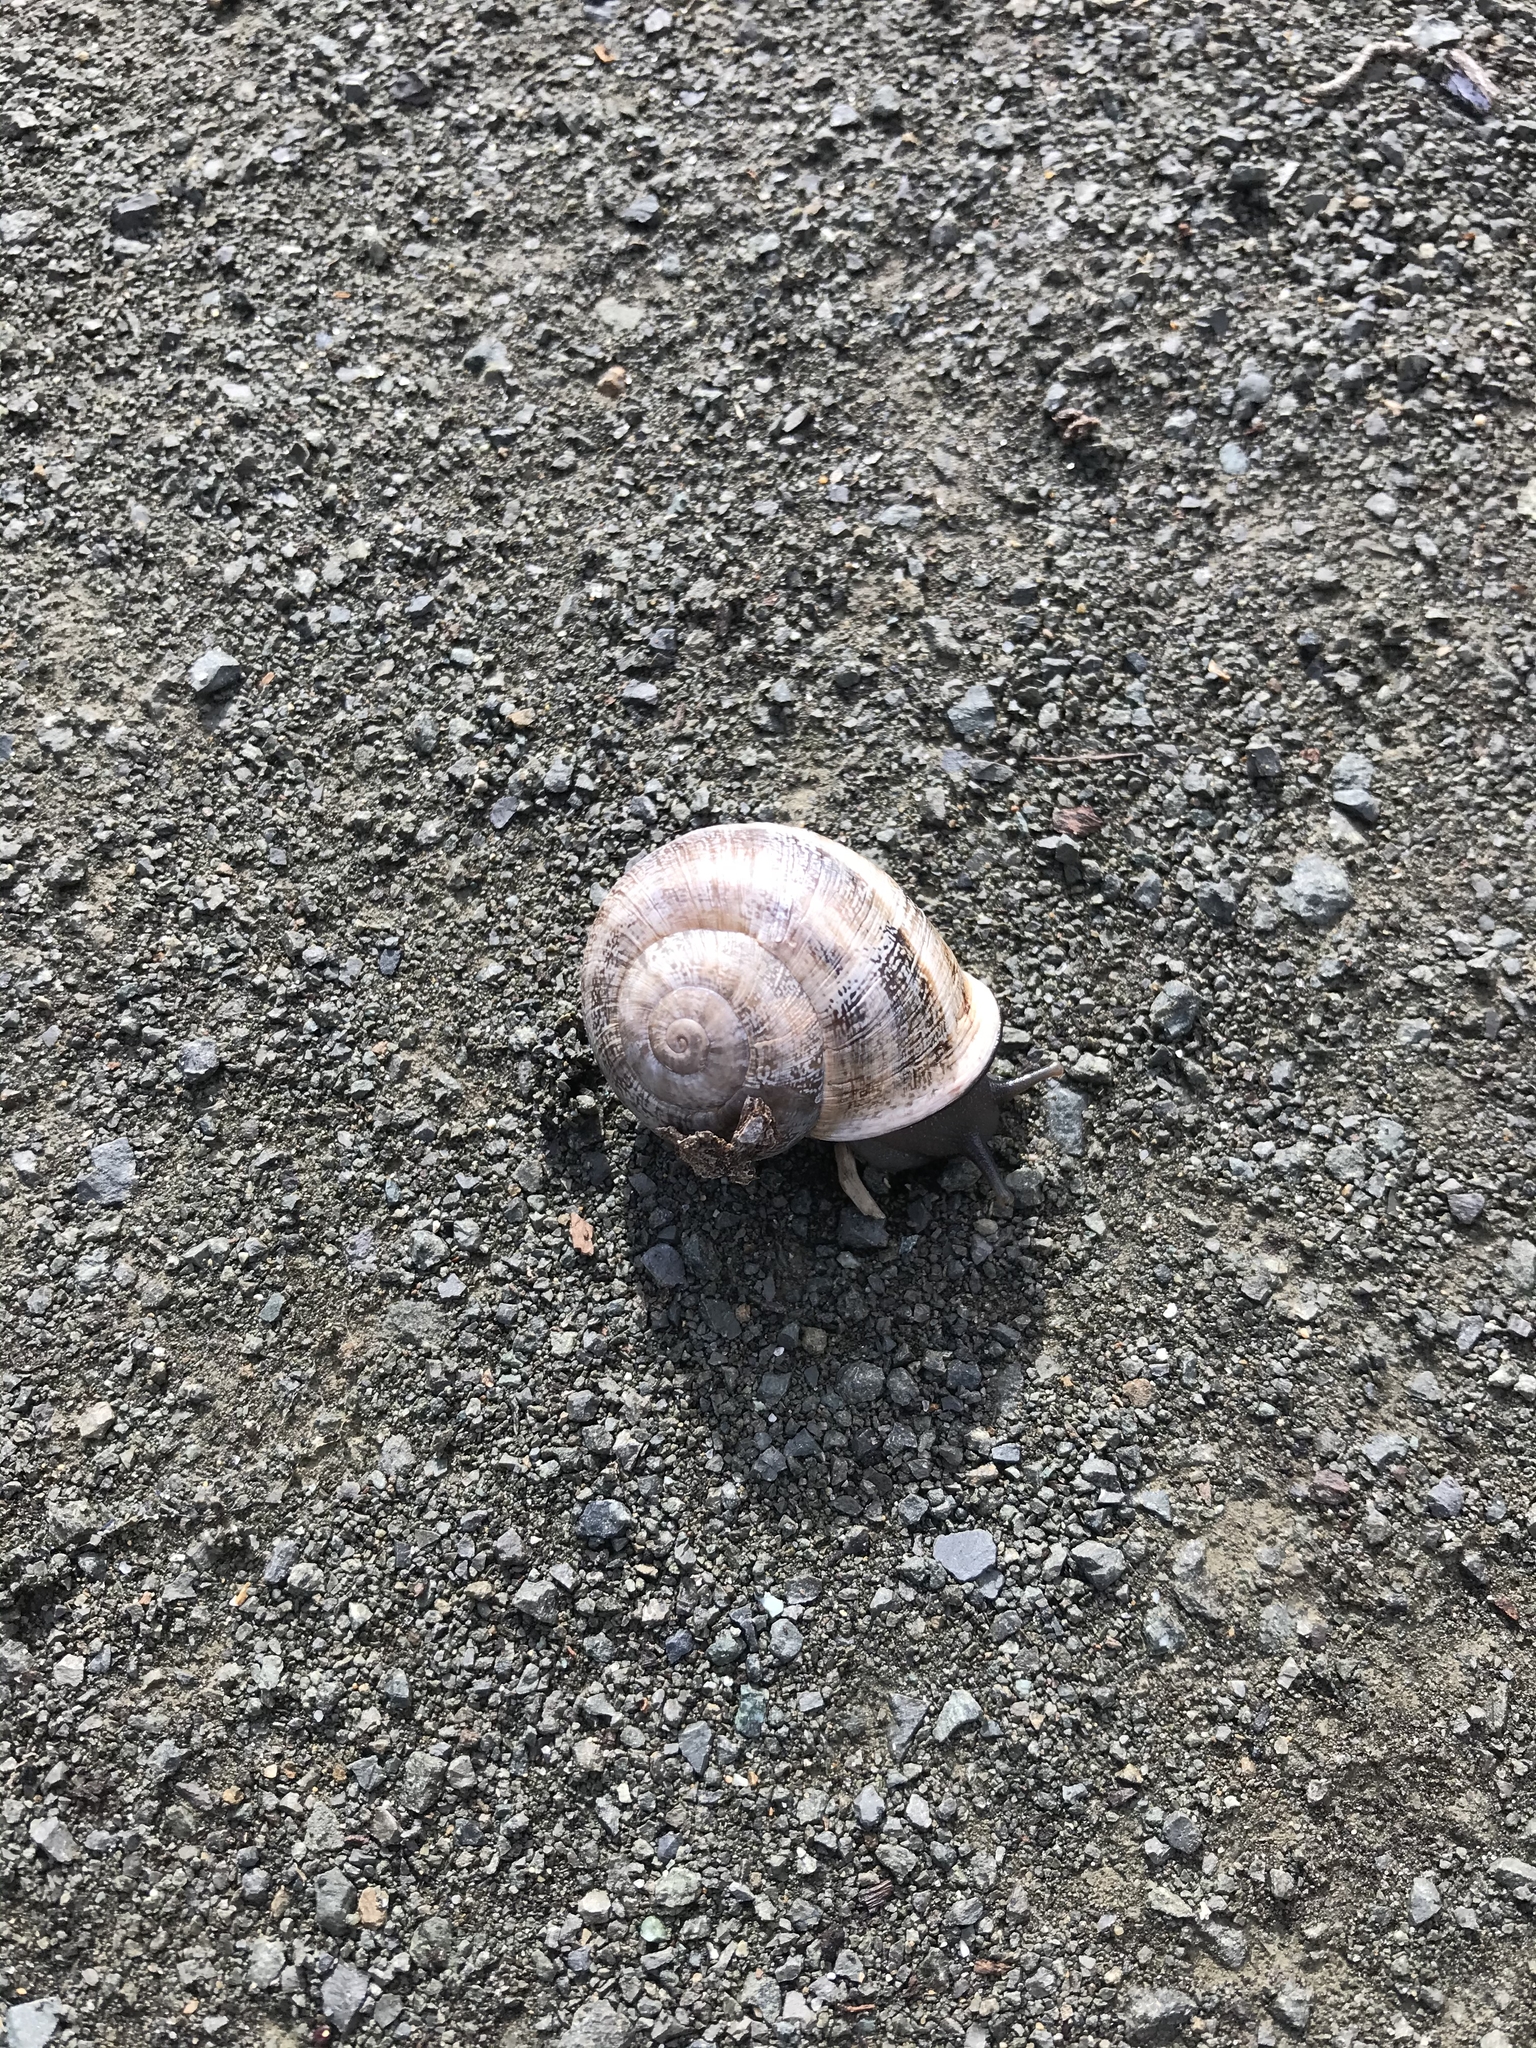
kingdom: Animalia
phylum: Mollusca
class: Gastropoda
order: Stylommatophora
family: Helicidae
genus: Otala
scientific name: Otala lactea
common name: Milk snail
